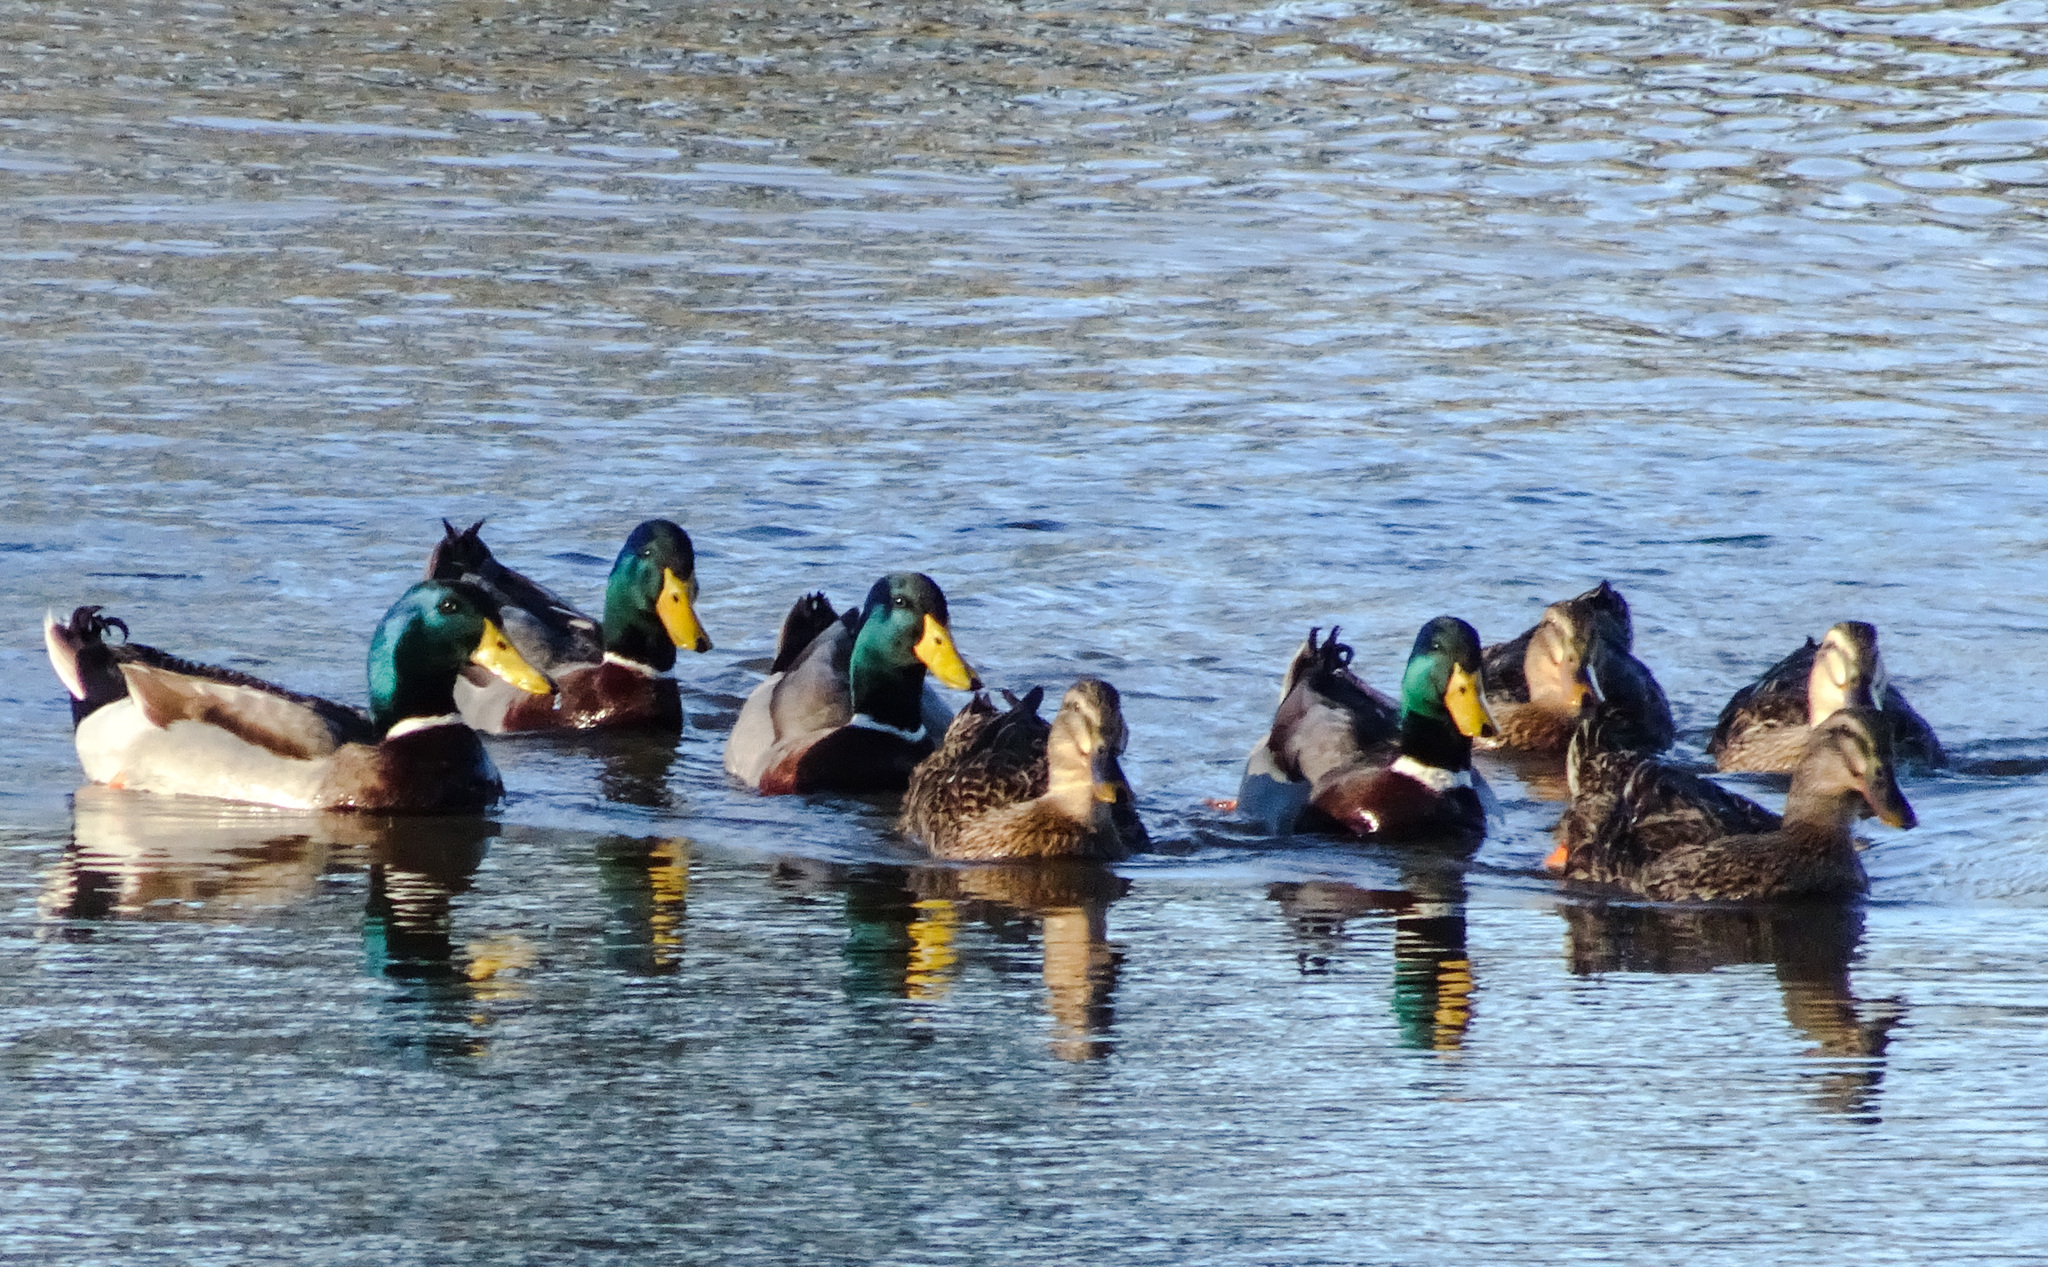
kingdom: Animalia
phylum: Chordata
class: Aves
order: Anseriformes
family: Anatidae
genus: Anas
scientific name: Anas platyrhynchos
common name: Mallard
